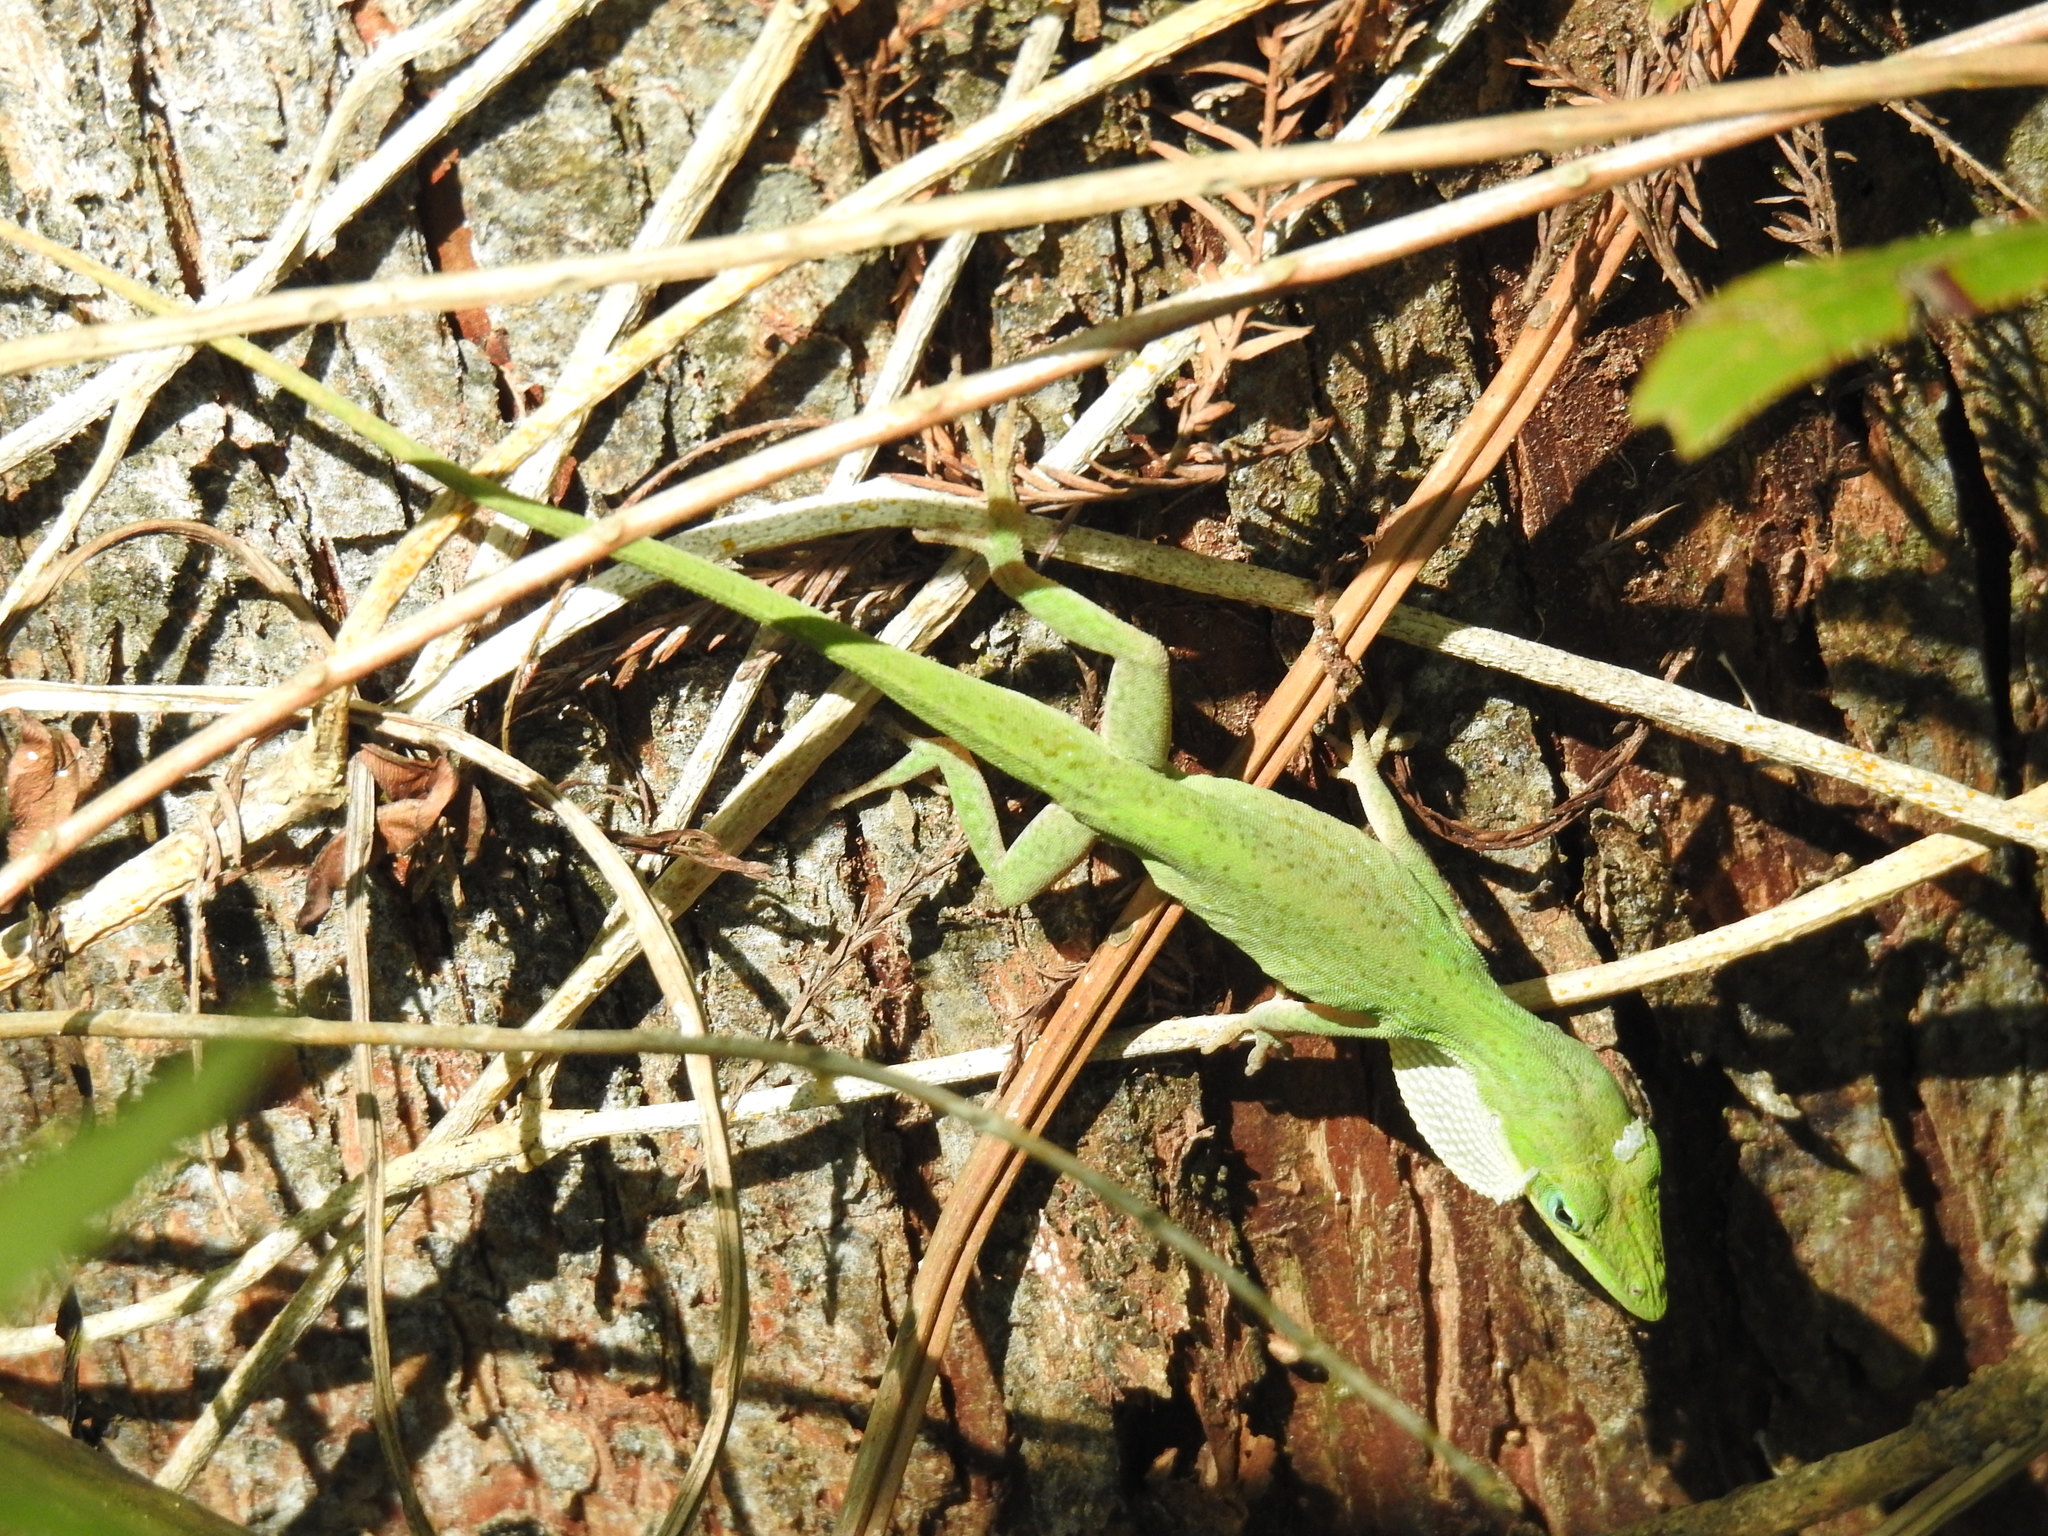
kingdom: Animalia
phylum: Chordata
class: Squamata
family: Dactyloidae
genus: Anolis
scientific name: Anolis carolinensis
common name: Green anole
